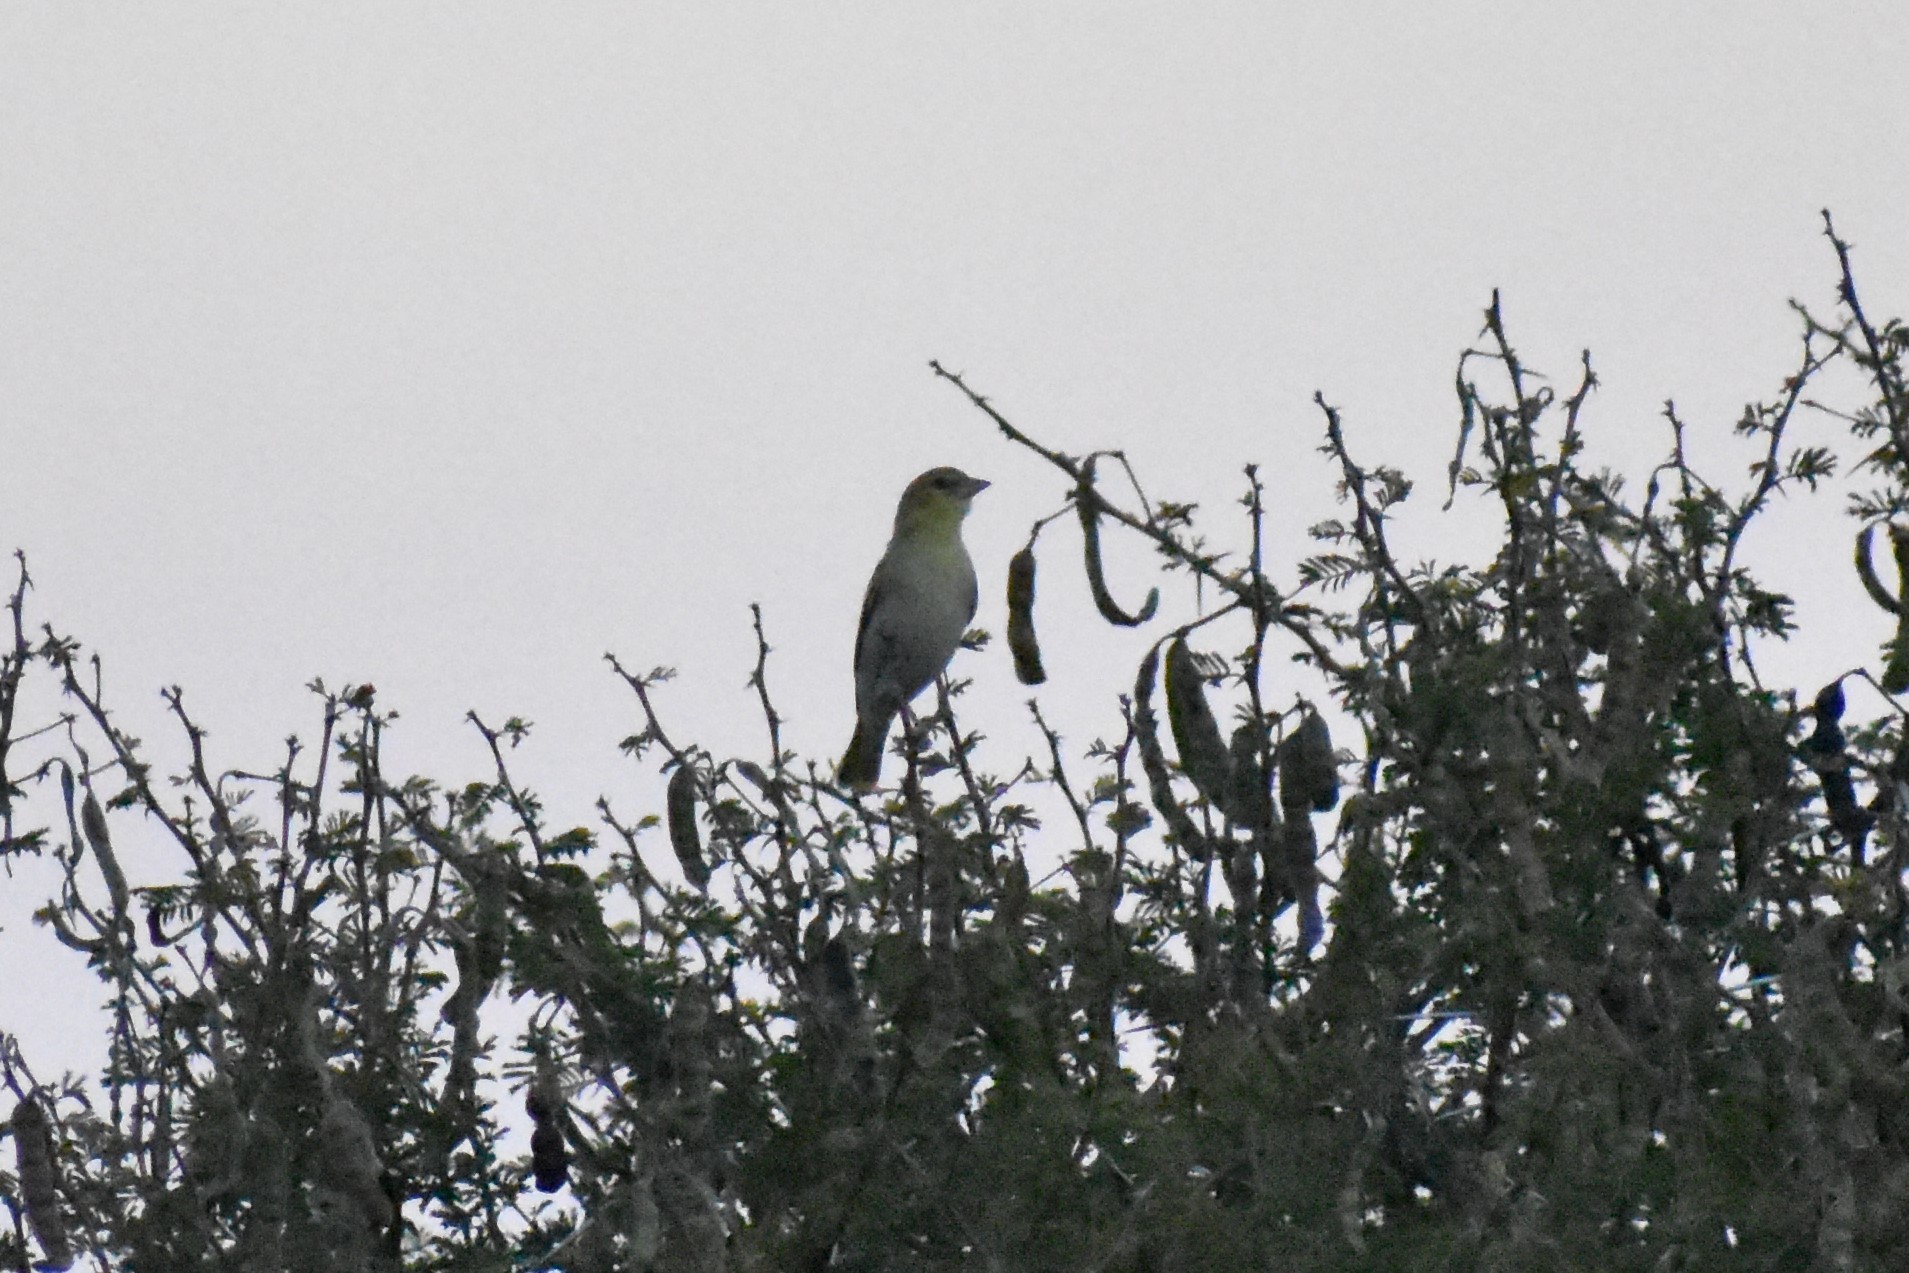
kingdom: Animalia
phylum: Chordata
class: Aves
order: Passeriformes
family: Ploceidae
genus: Ploceus
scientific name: Ploceus velatus
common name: Southern masked weaver
